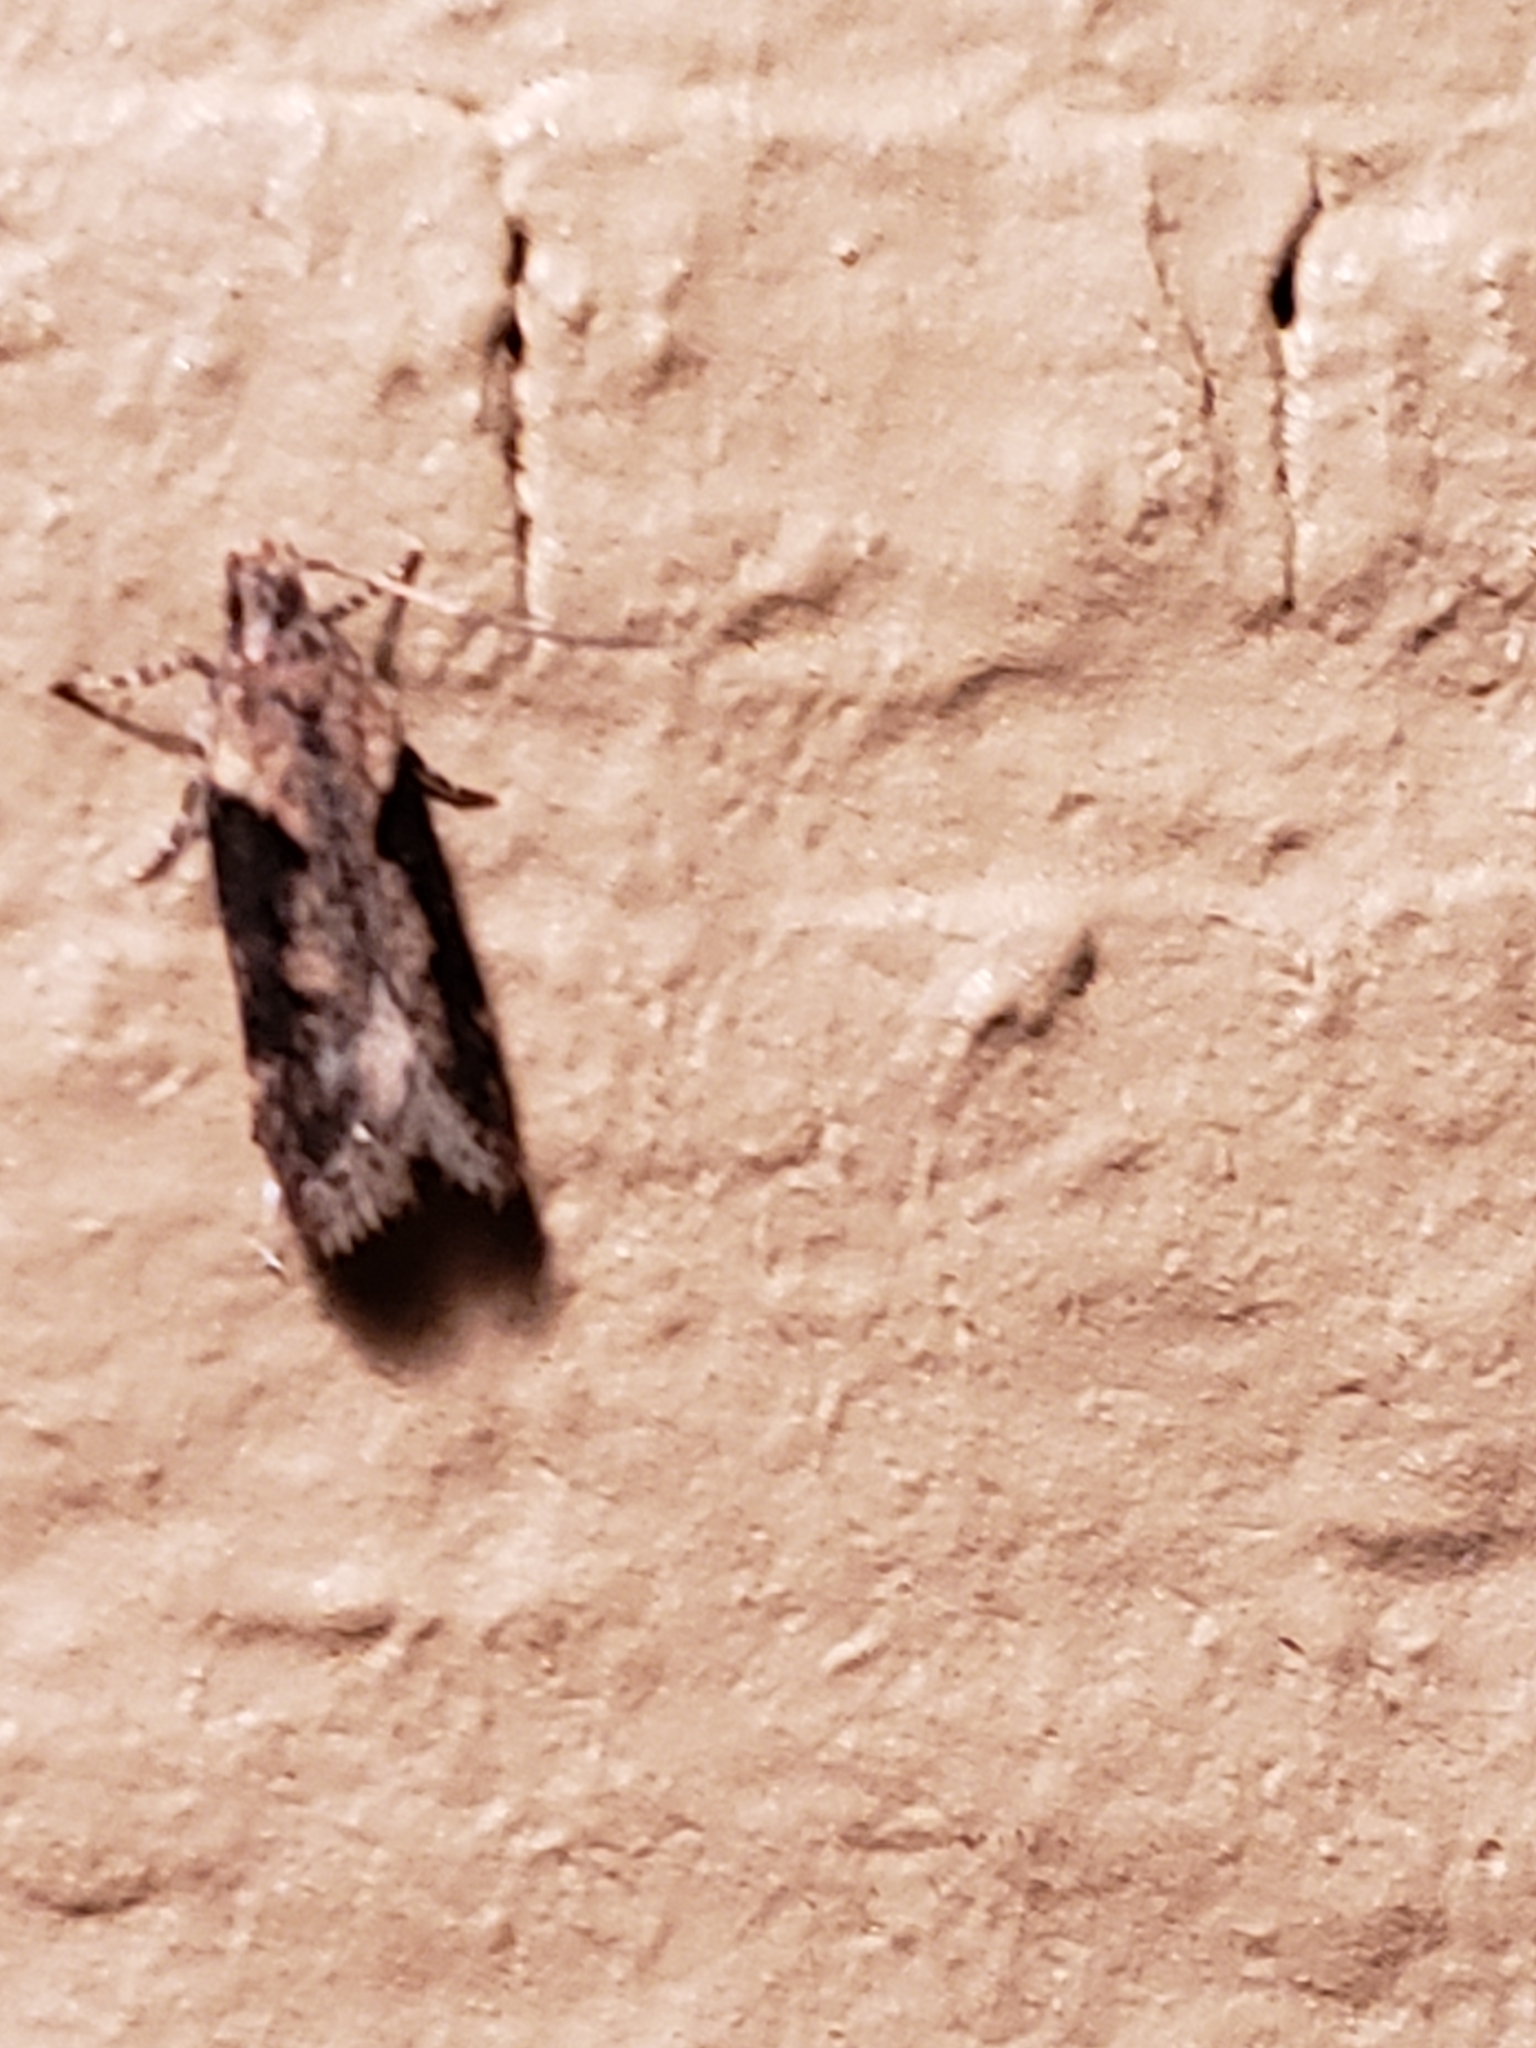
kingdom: Animalia
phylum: Arthropoda
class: Insecta
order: Lepidoptera
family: Gelechiidae
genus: Chionodes
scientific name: Chionodes mediofuscella
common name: Black-smudged chionodes moth
